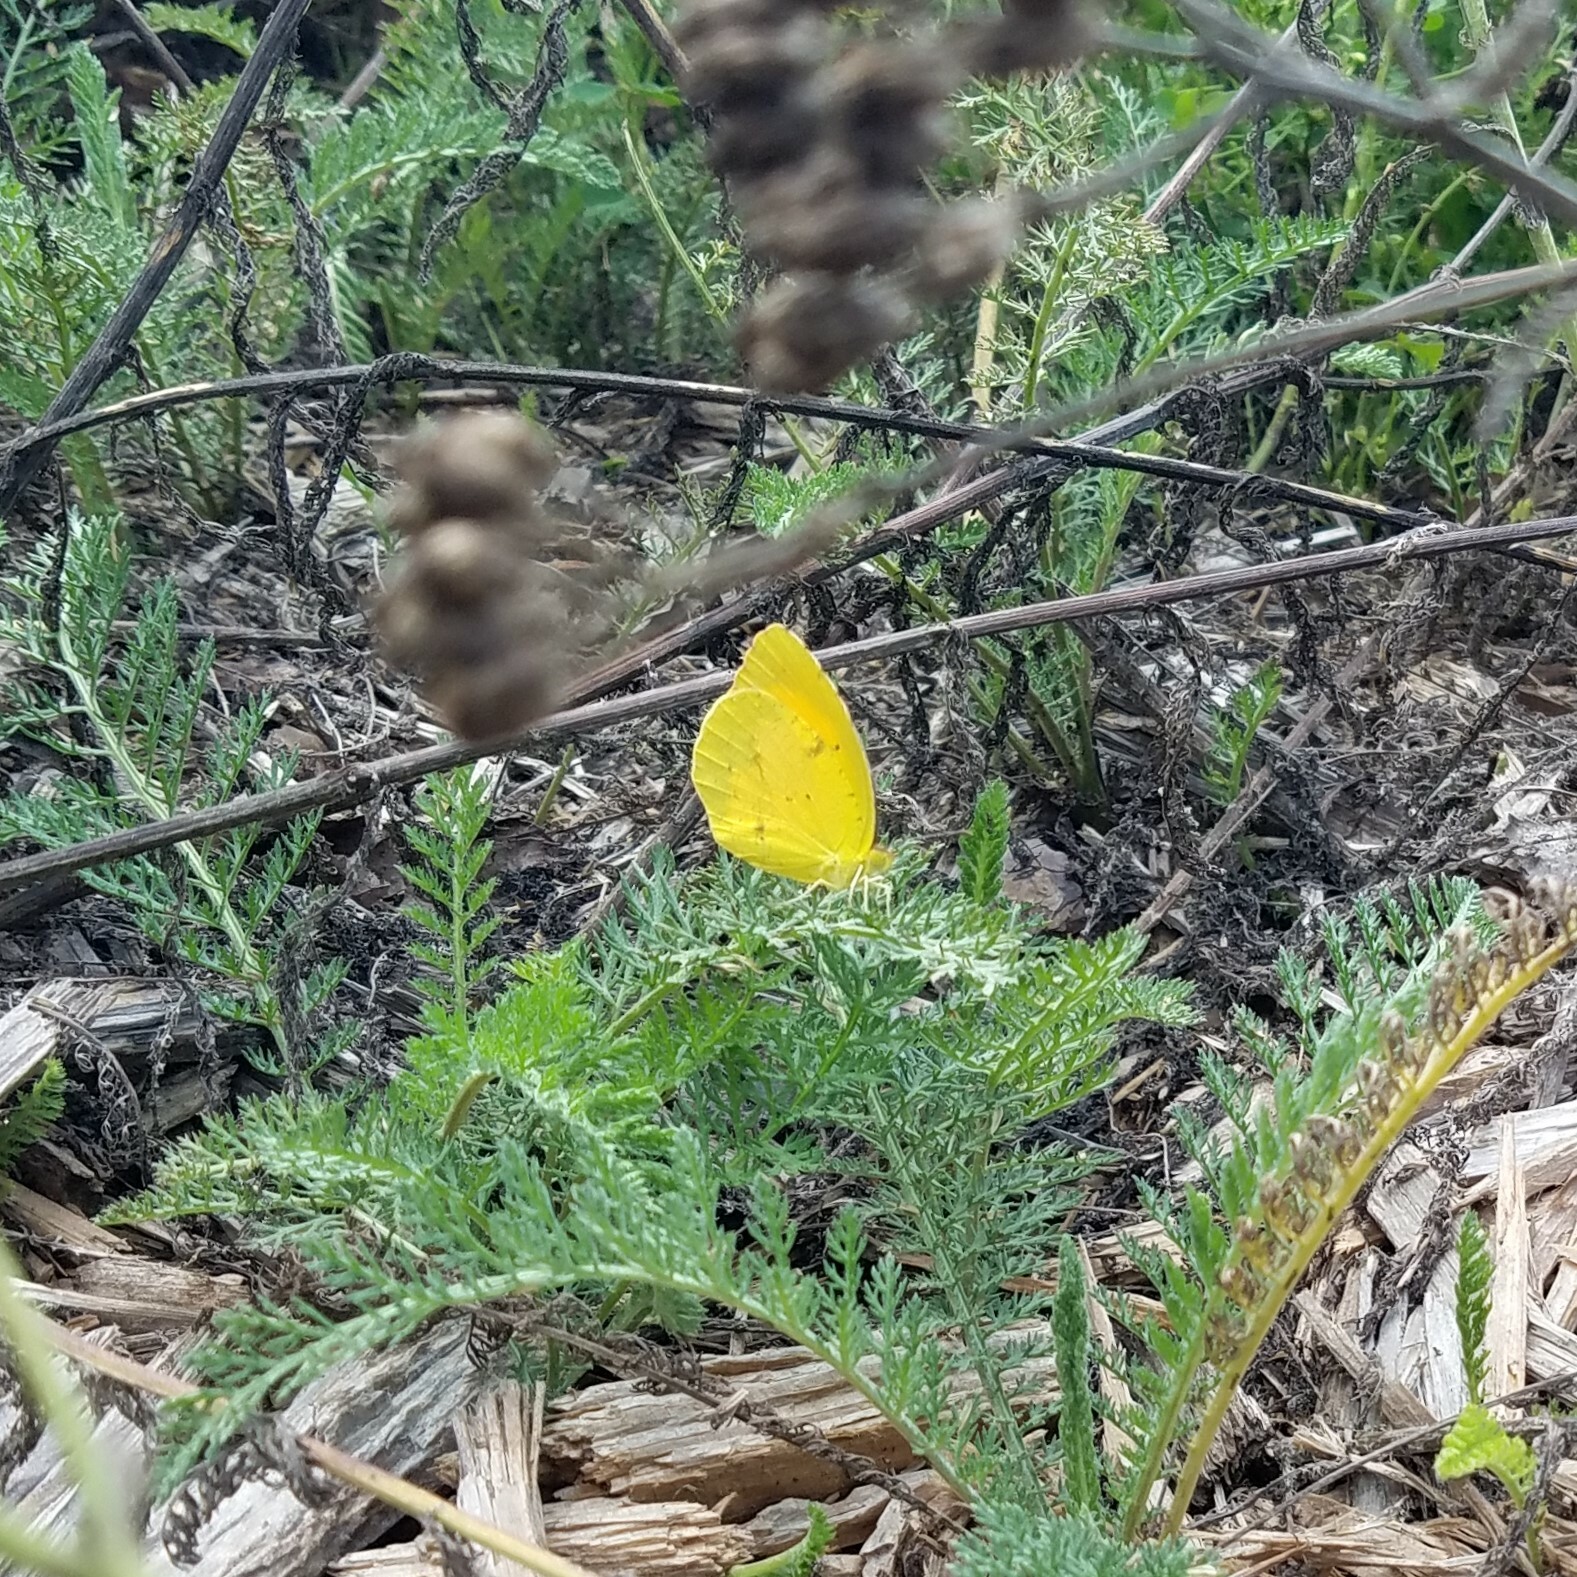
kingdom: Animalia
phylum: Arthropoda
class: Insecta
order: Lepidoptera
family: Pieridae
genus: Abaeis
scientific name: Abaeis nicippe
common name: Sleepy orange
